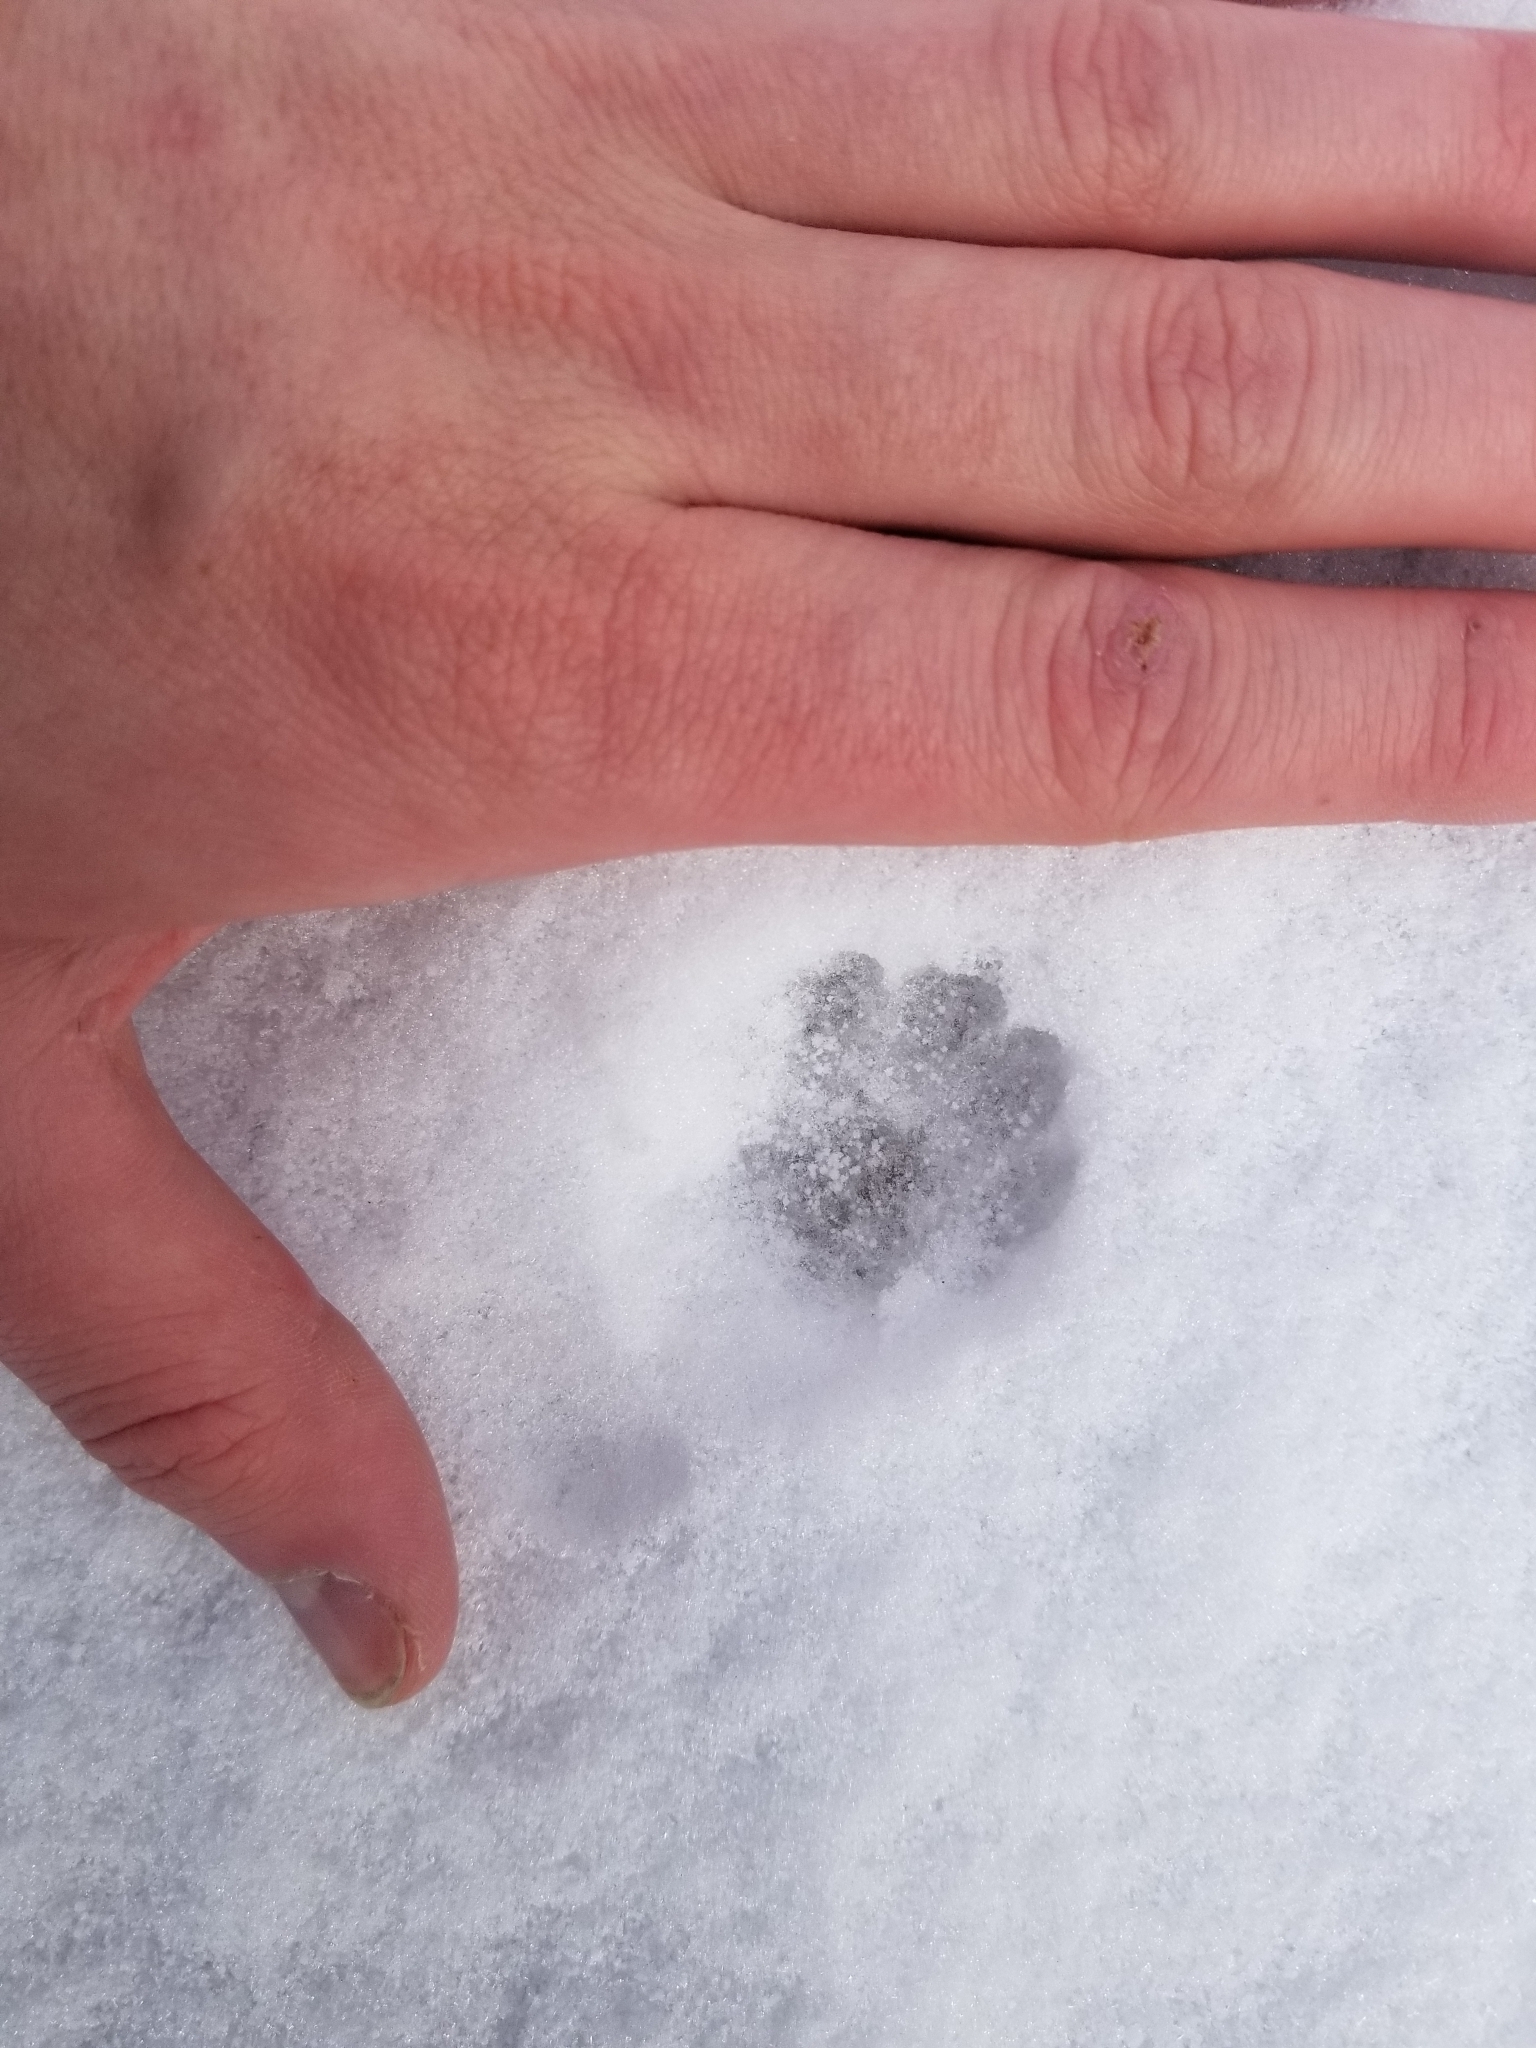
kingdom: Animalia
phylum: Chordata
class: Mammalia
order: Carnivora
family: Felidae
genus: Felis
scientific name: Felis catus
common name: Domestic cat
